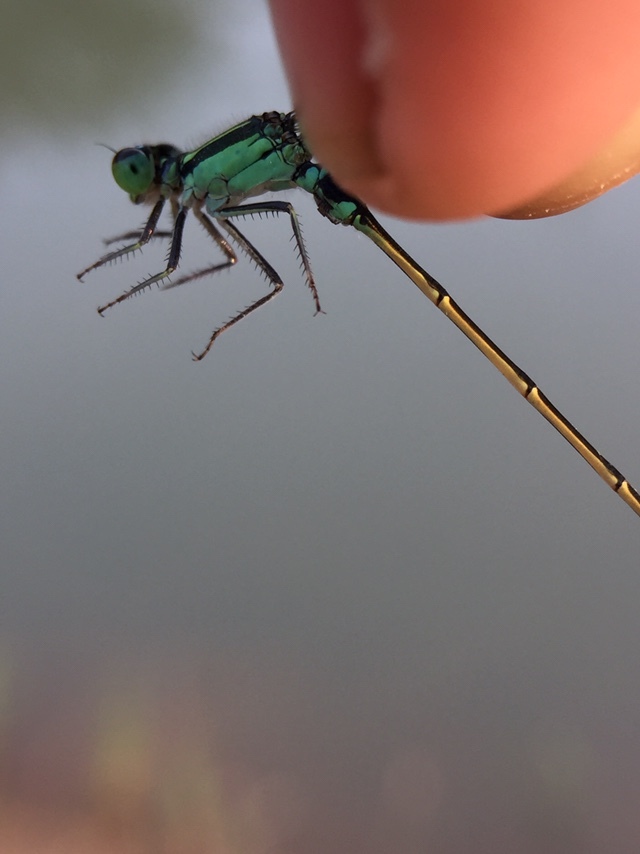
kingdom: Animalia
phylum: Arthropoda
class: Insecta
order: Odonata
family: Coenagrionidae
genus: Ischnura
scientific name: Ischnura senegalensis
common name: Tropical bluetail
